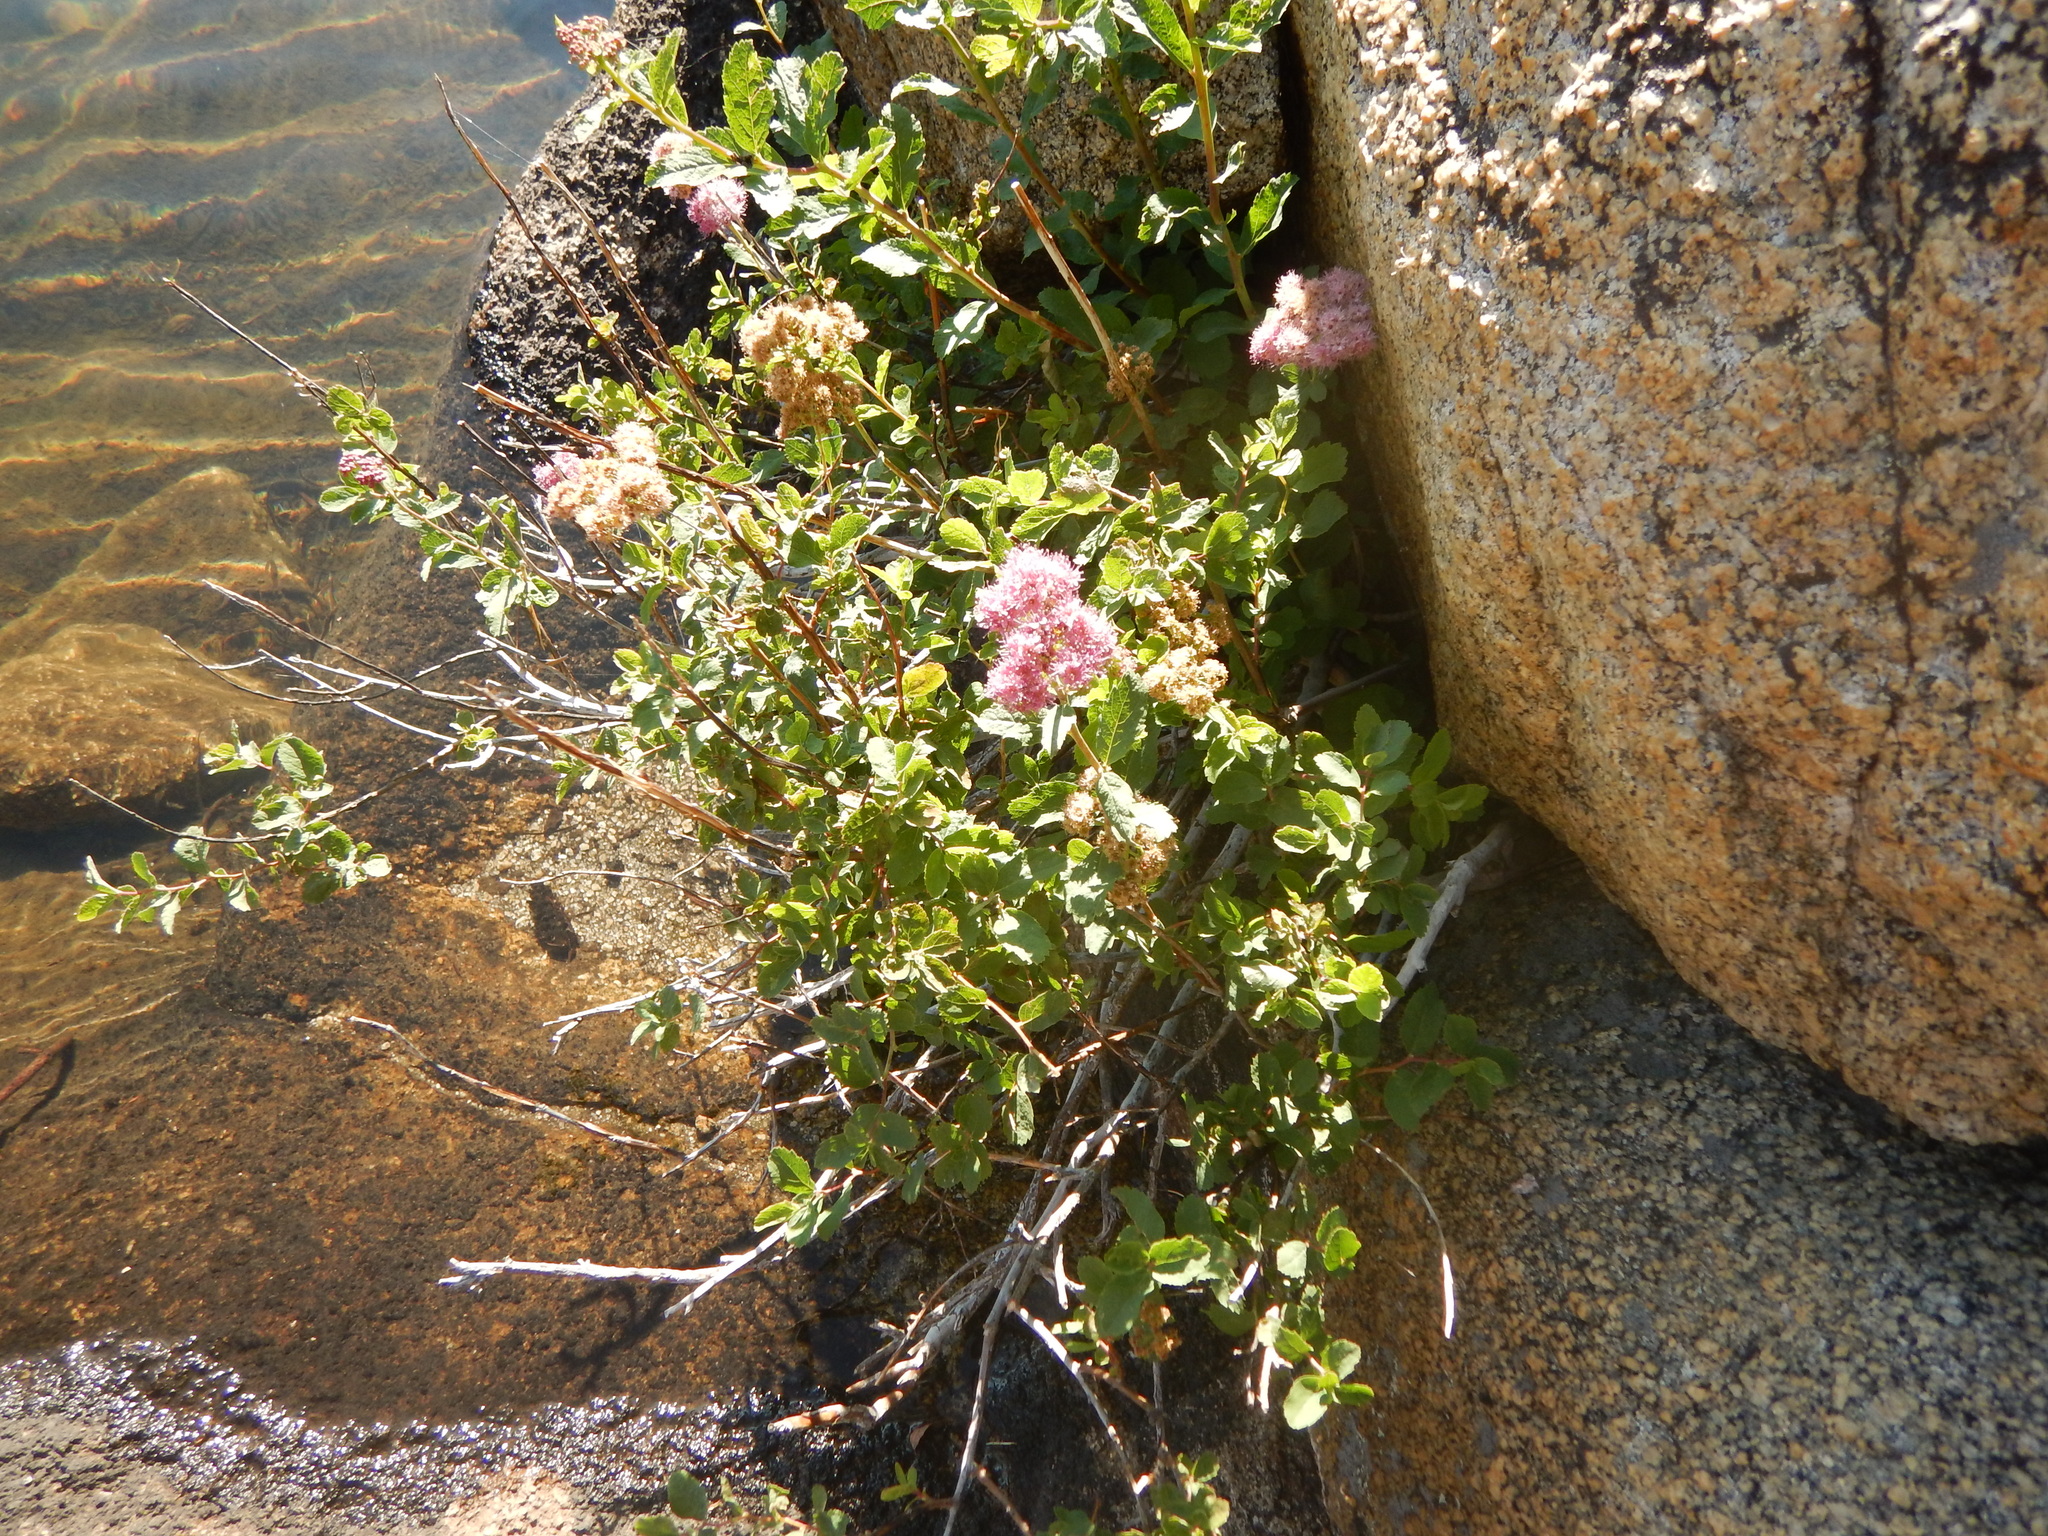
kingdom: Plantae
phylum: Tracheophyta
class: Magnoliopsida
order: Rosales
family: Rosaceae
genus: Spiraea
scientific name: Spiraea splendens
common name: Subalpine meadowsweet
